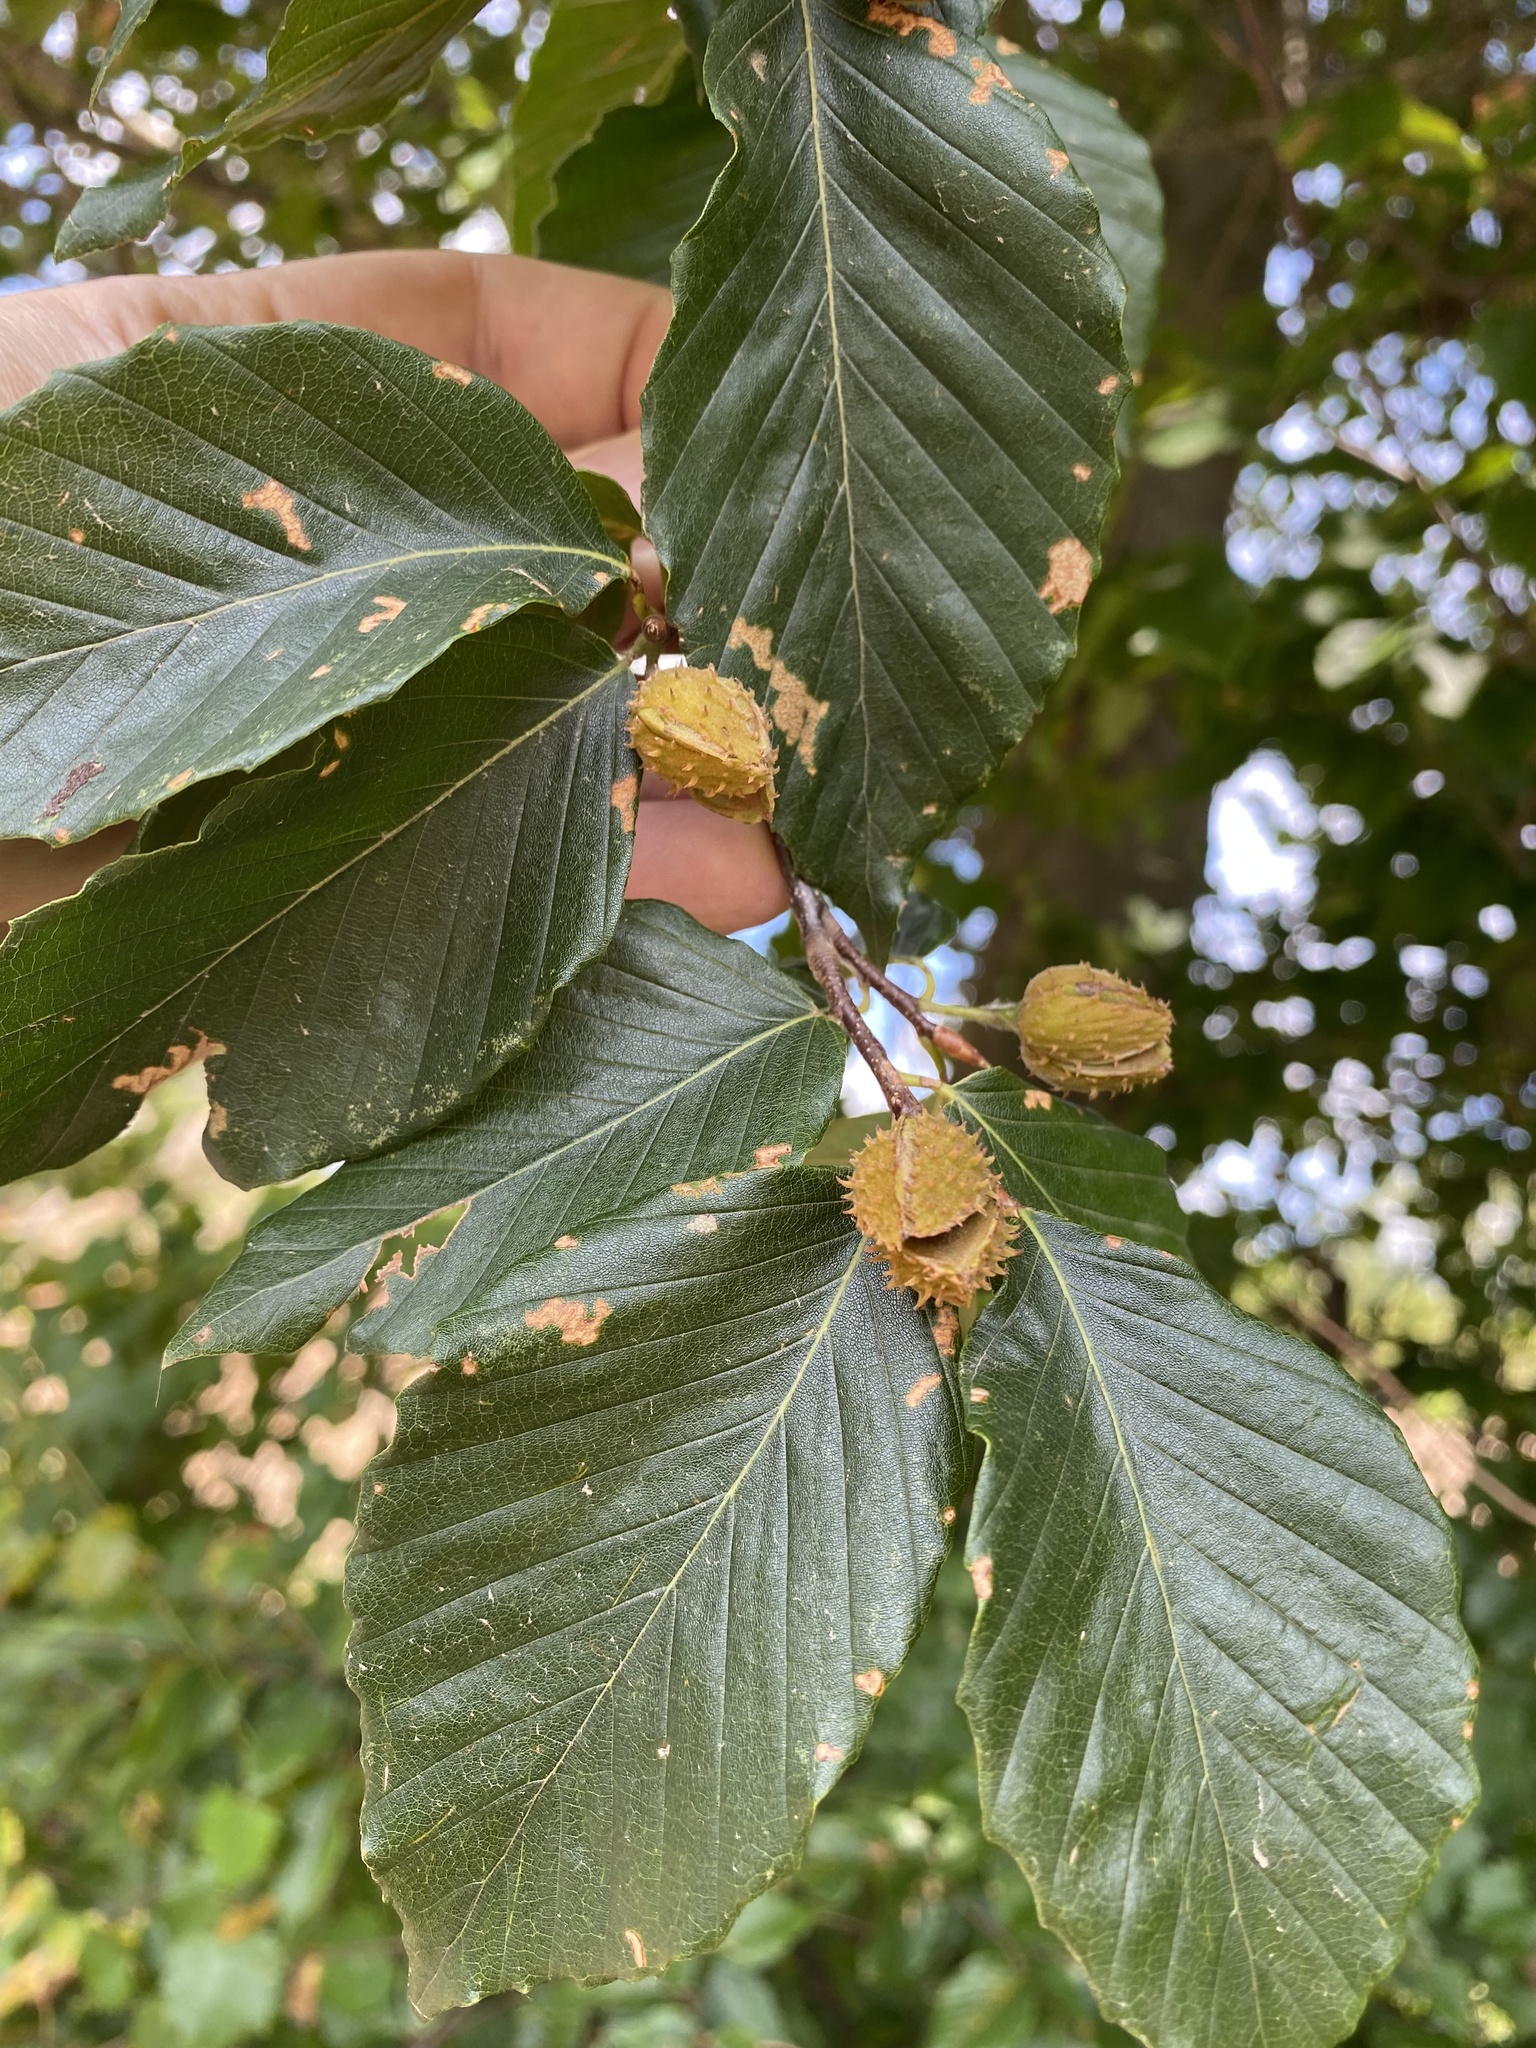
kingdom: Plantae
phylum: Tracheophyta
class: Magnoliopsida
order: Fagales
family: Fagaceae
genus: Fagus
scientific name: Fagus grandifolia
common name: American beech
